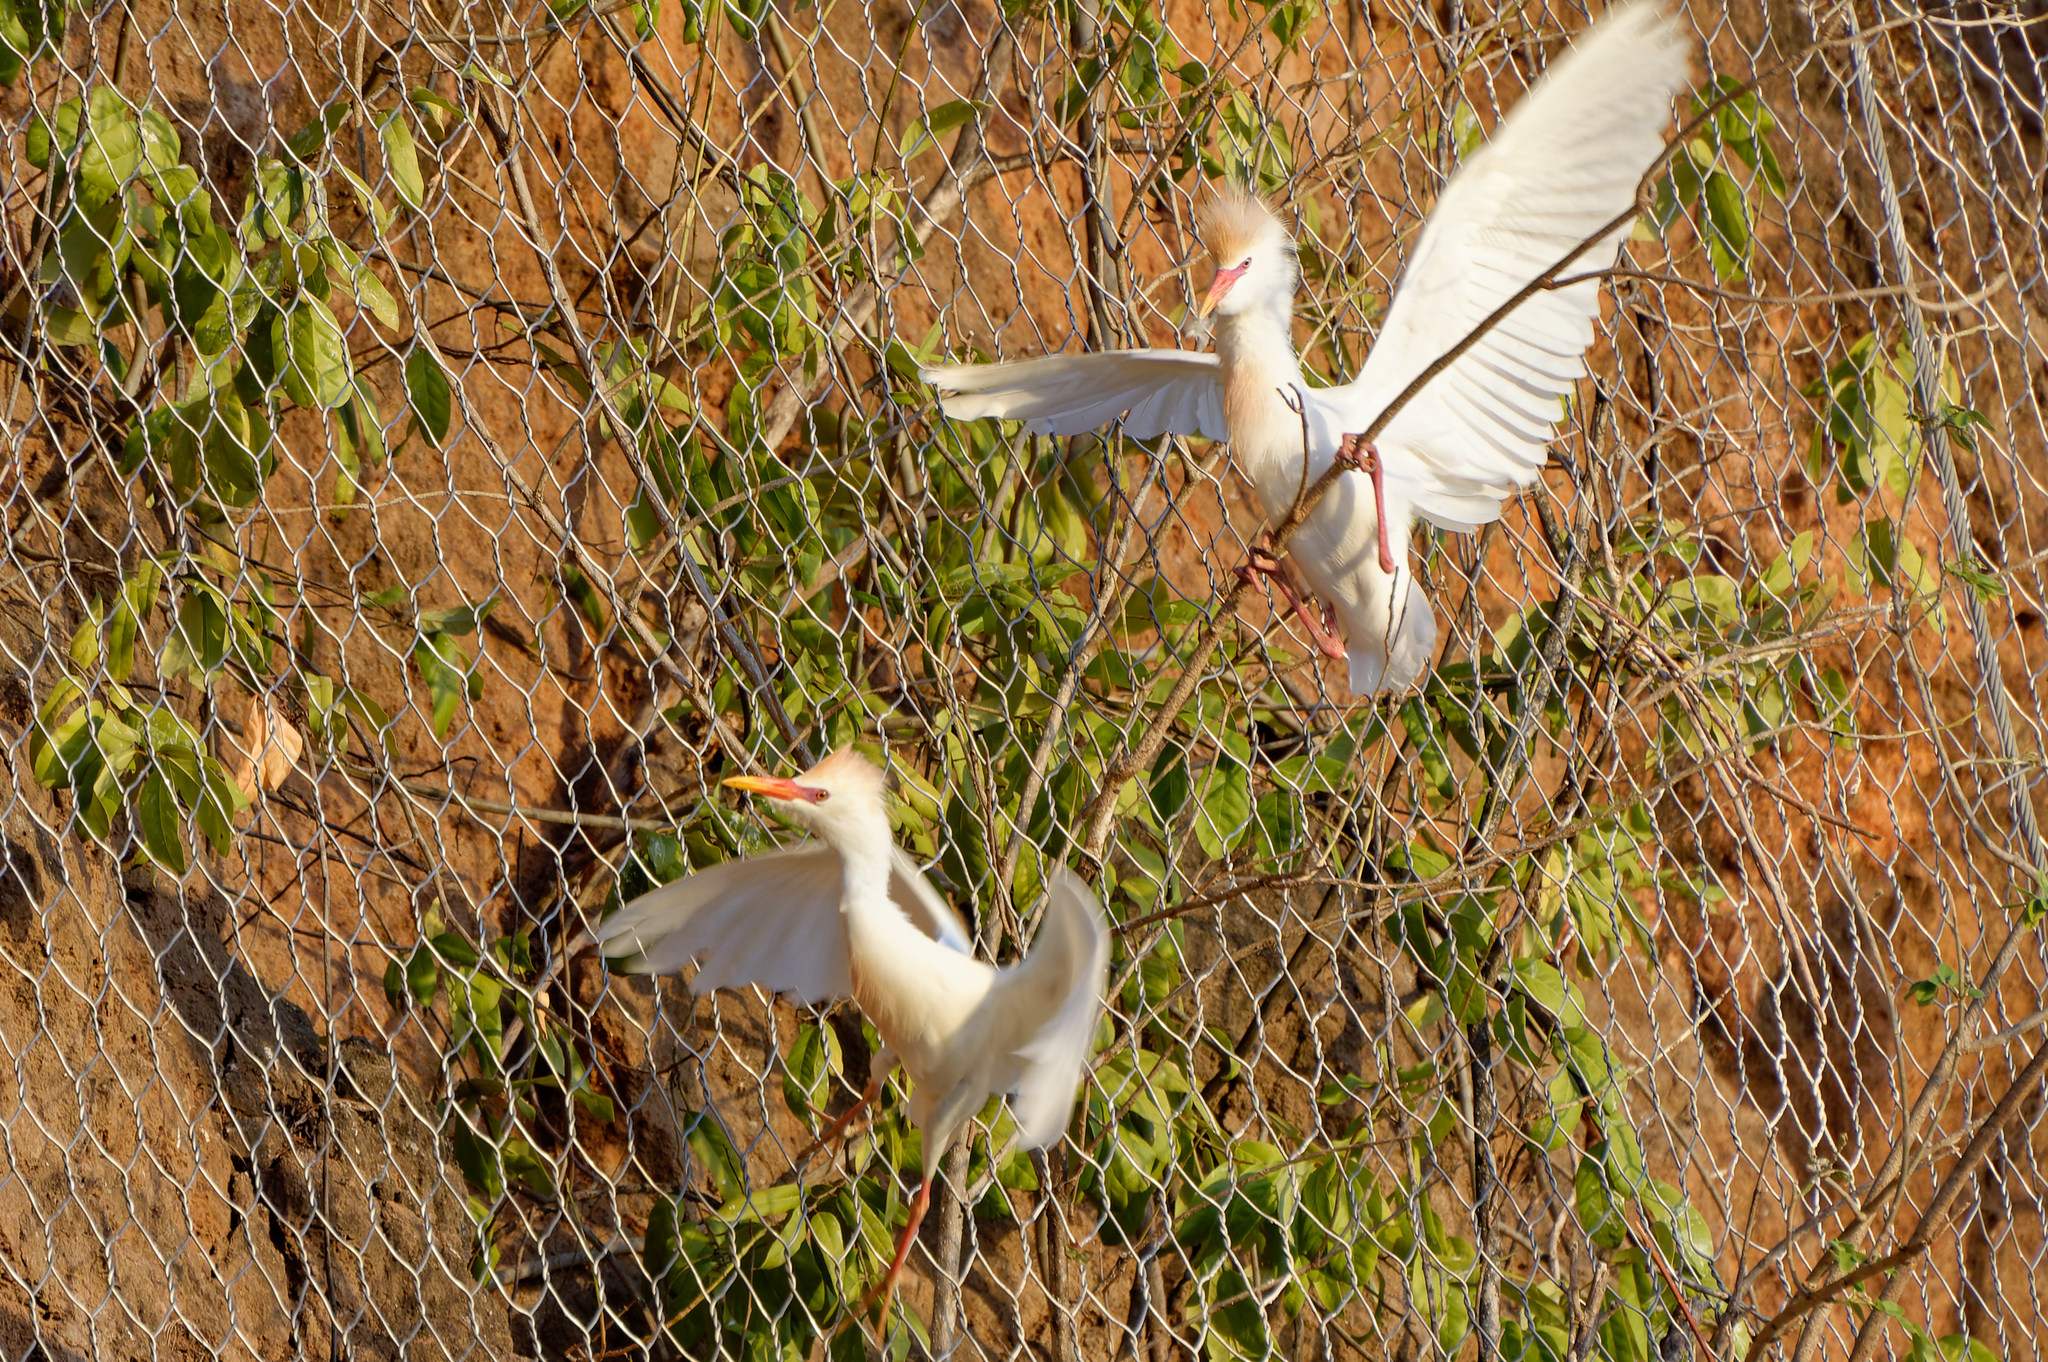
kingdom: Animalia
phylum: Chordata
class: Aves
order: Pelecaniformes
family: Ardeidae
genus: Bubulcus
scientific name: Bubulcus ibis
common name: Cattle egret
